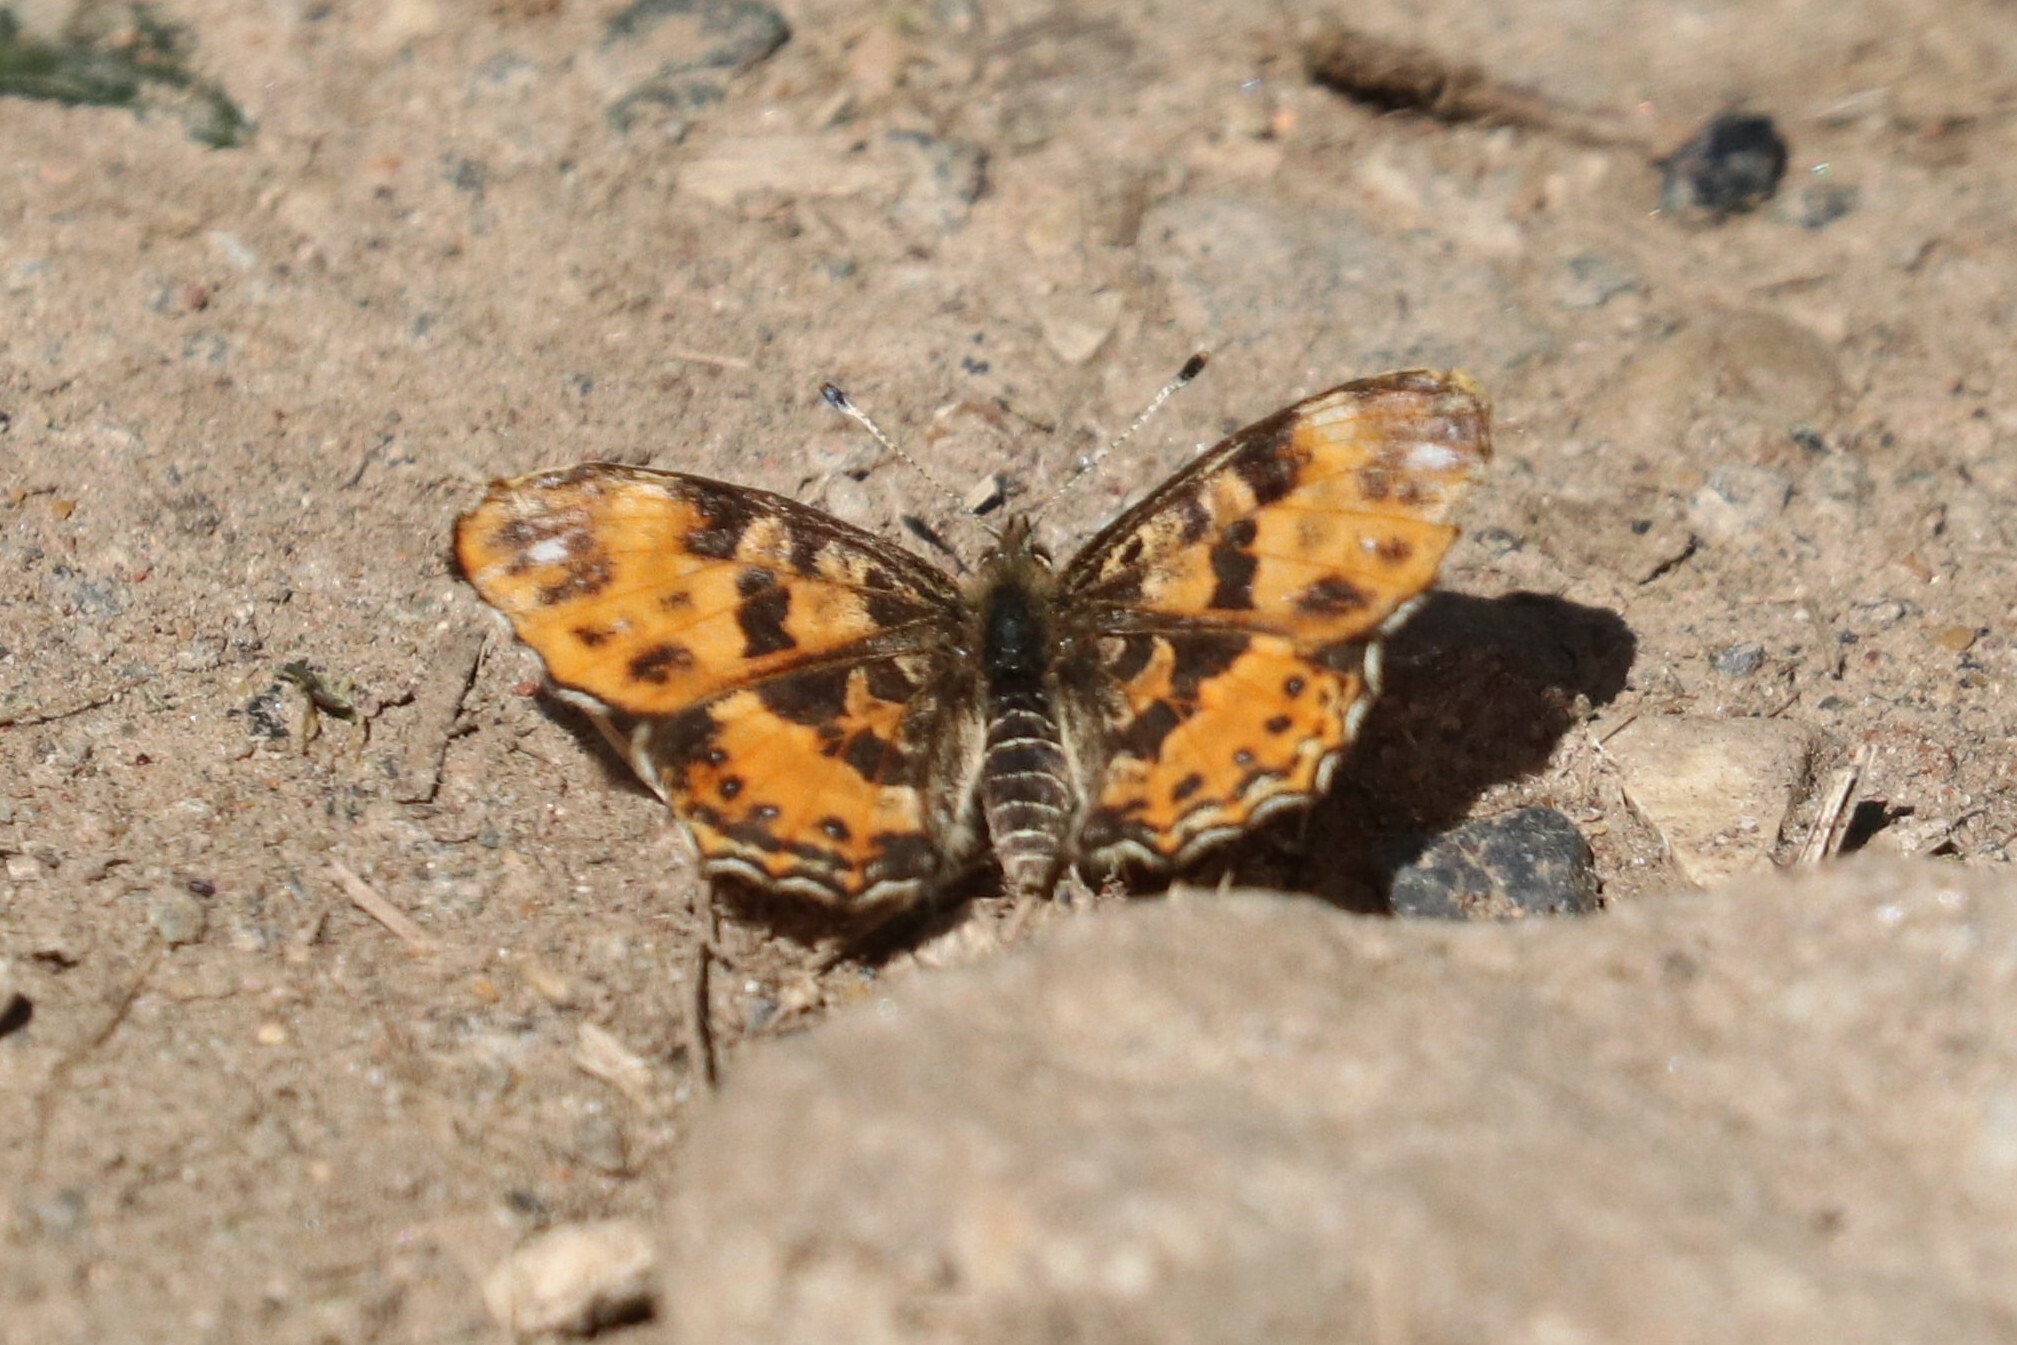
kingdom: Animalia
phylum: Arthropoda
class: Insecta
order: Lepidoptera
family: Nymphalidae
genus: Araschnia
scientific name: Araschnia levana
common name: Map butterfly
